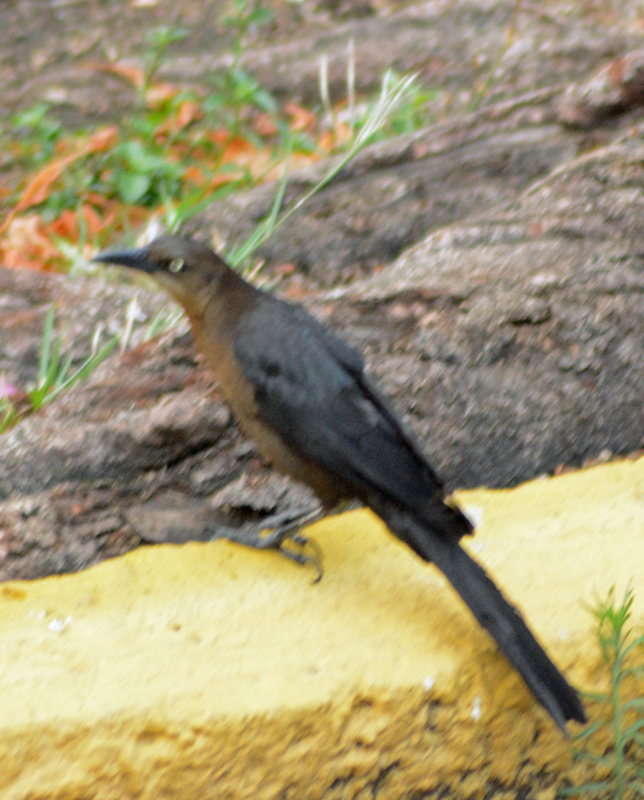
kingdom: Animalia
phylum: Chordata
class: Aves
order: Passeriformes
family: Icteridae
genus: Quiscalus
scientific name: Quiscalus mexicanus
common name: Great-tailed grackle
